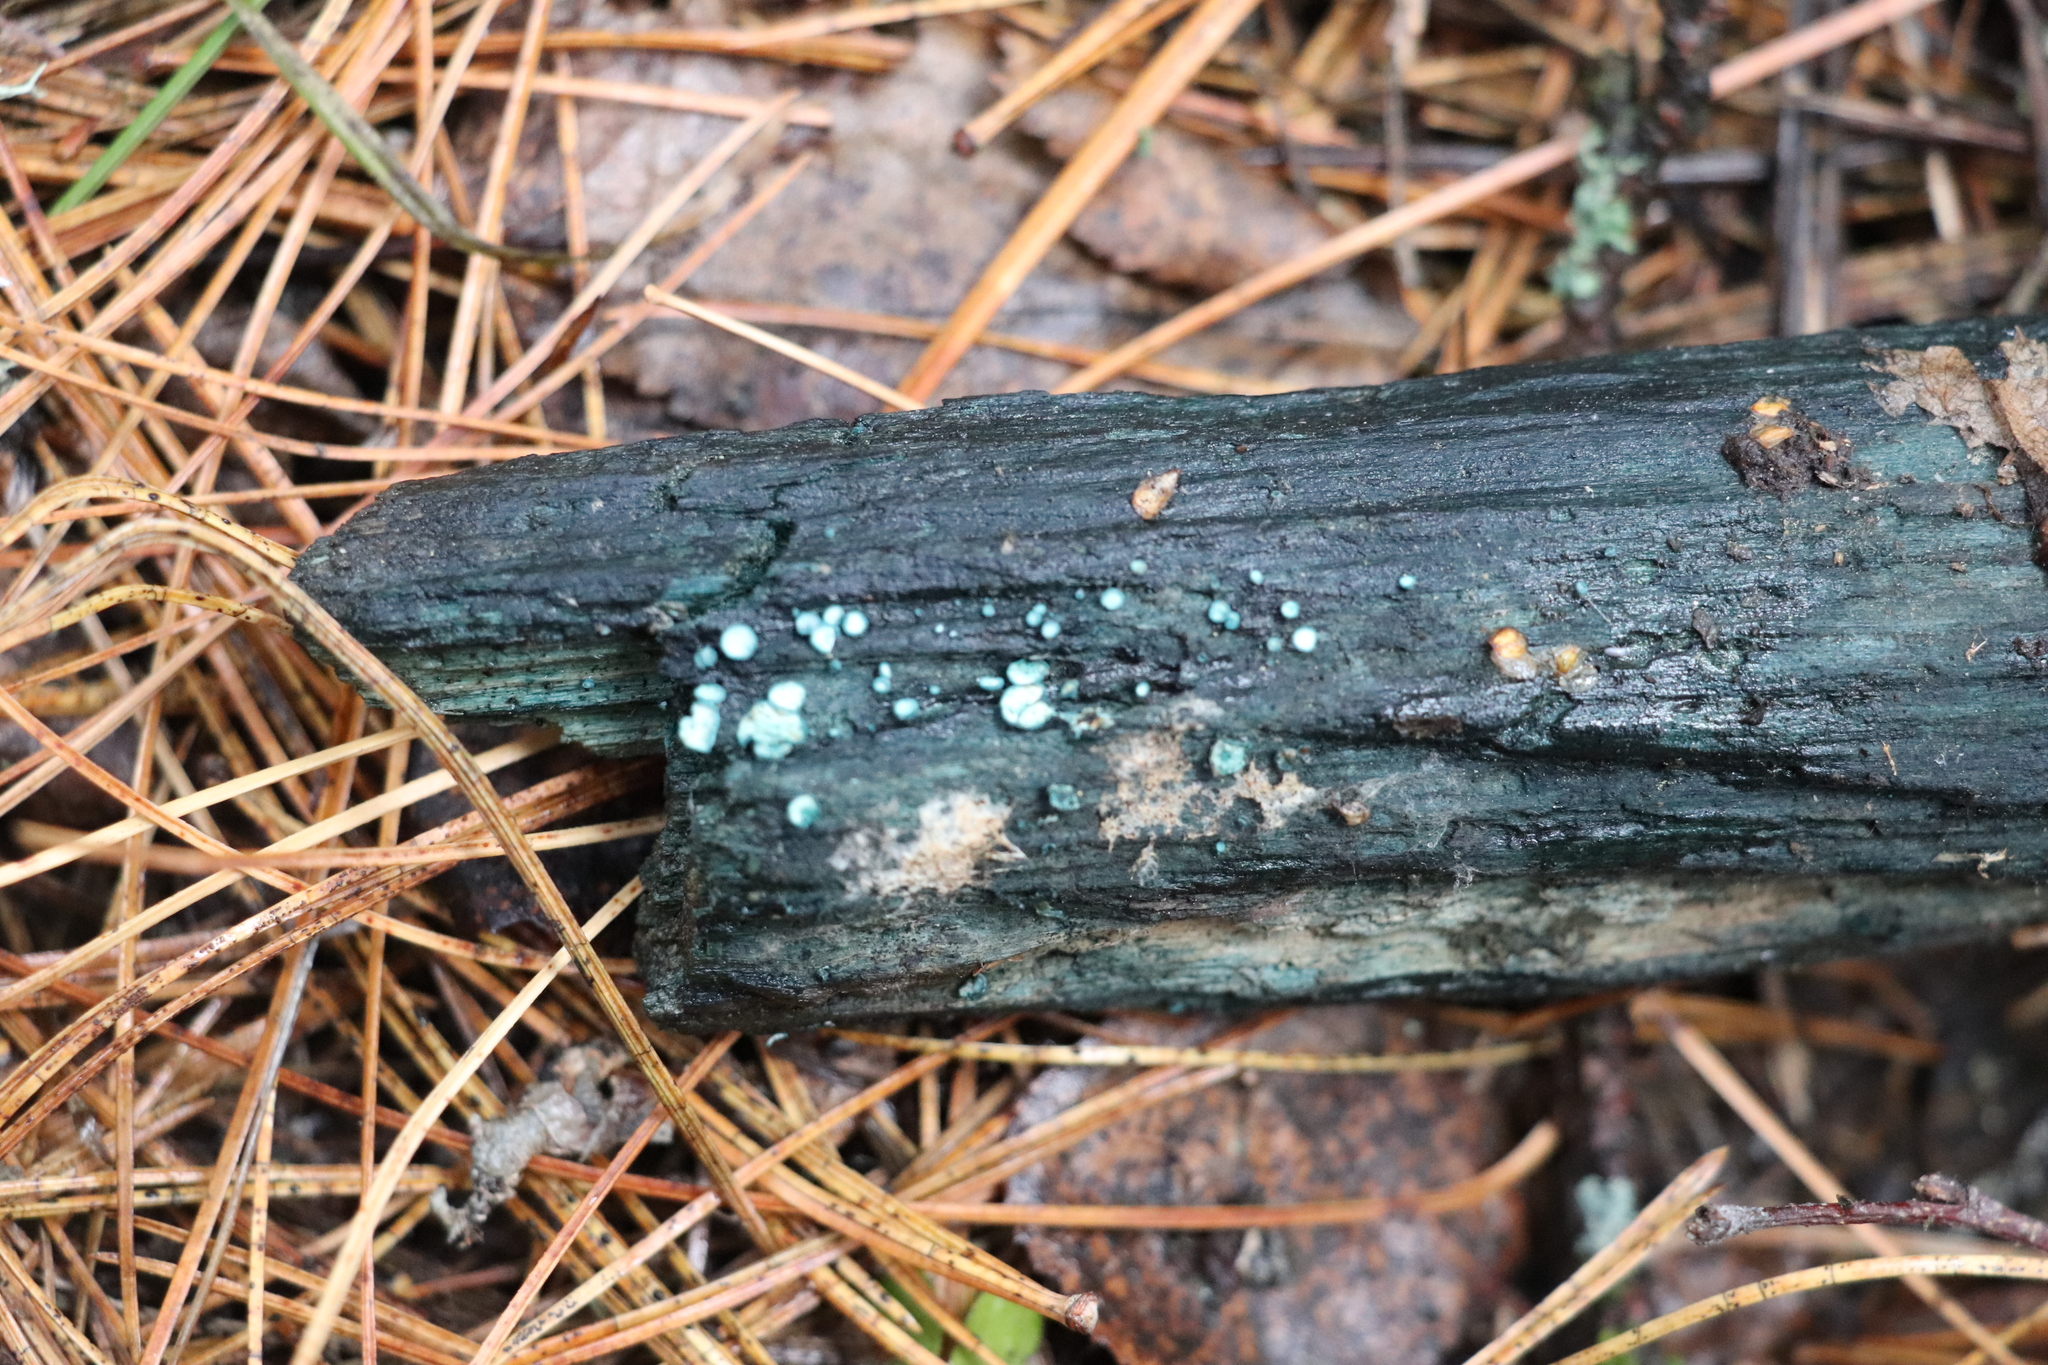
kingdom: Fungi
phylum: Ascomycota
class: Leotiomycetes
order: Helotiales
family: Chlorociboriaceae
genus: Chlorociboria
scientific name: Chlorociboria aeruginosa
